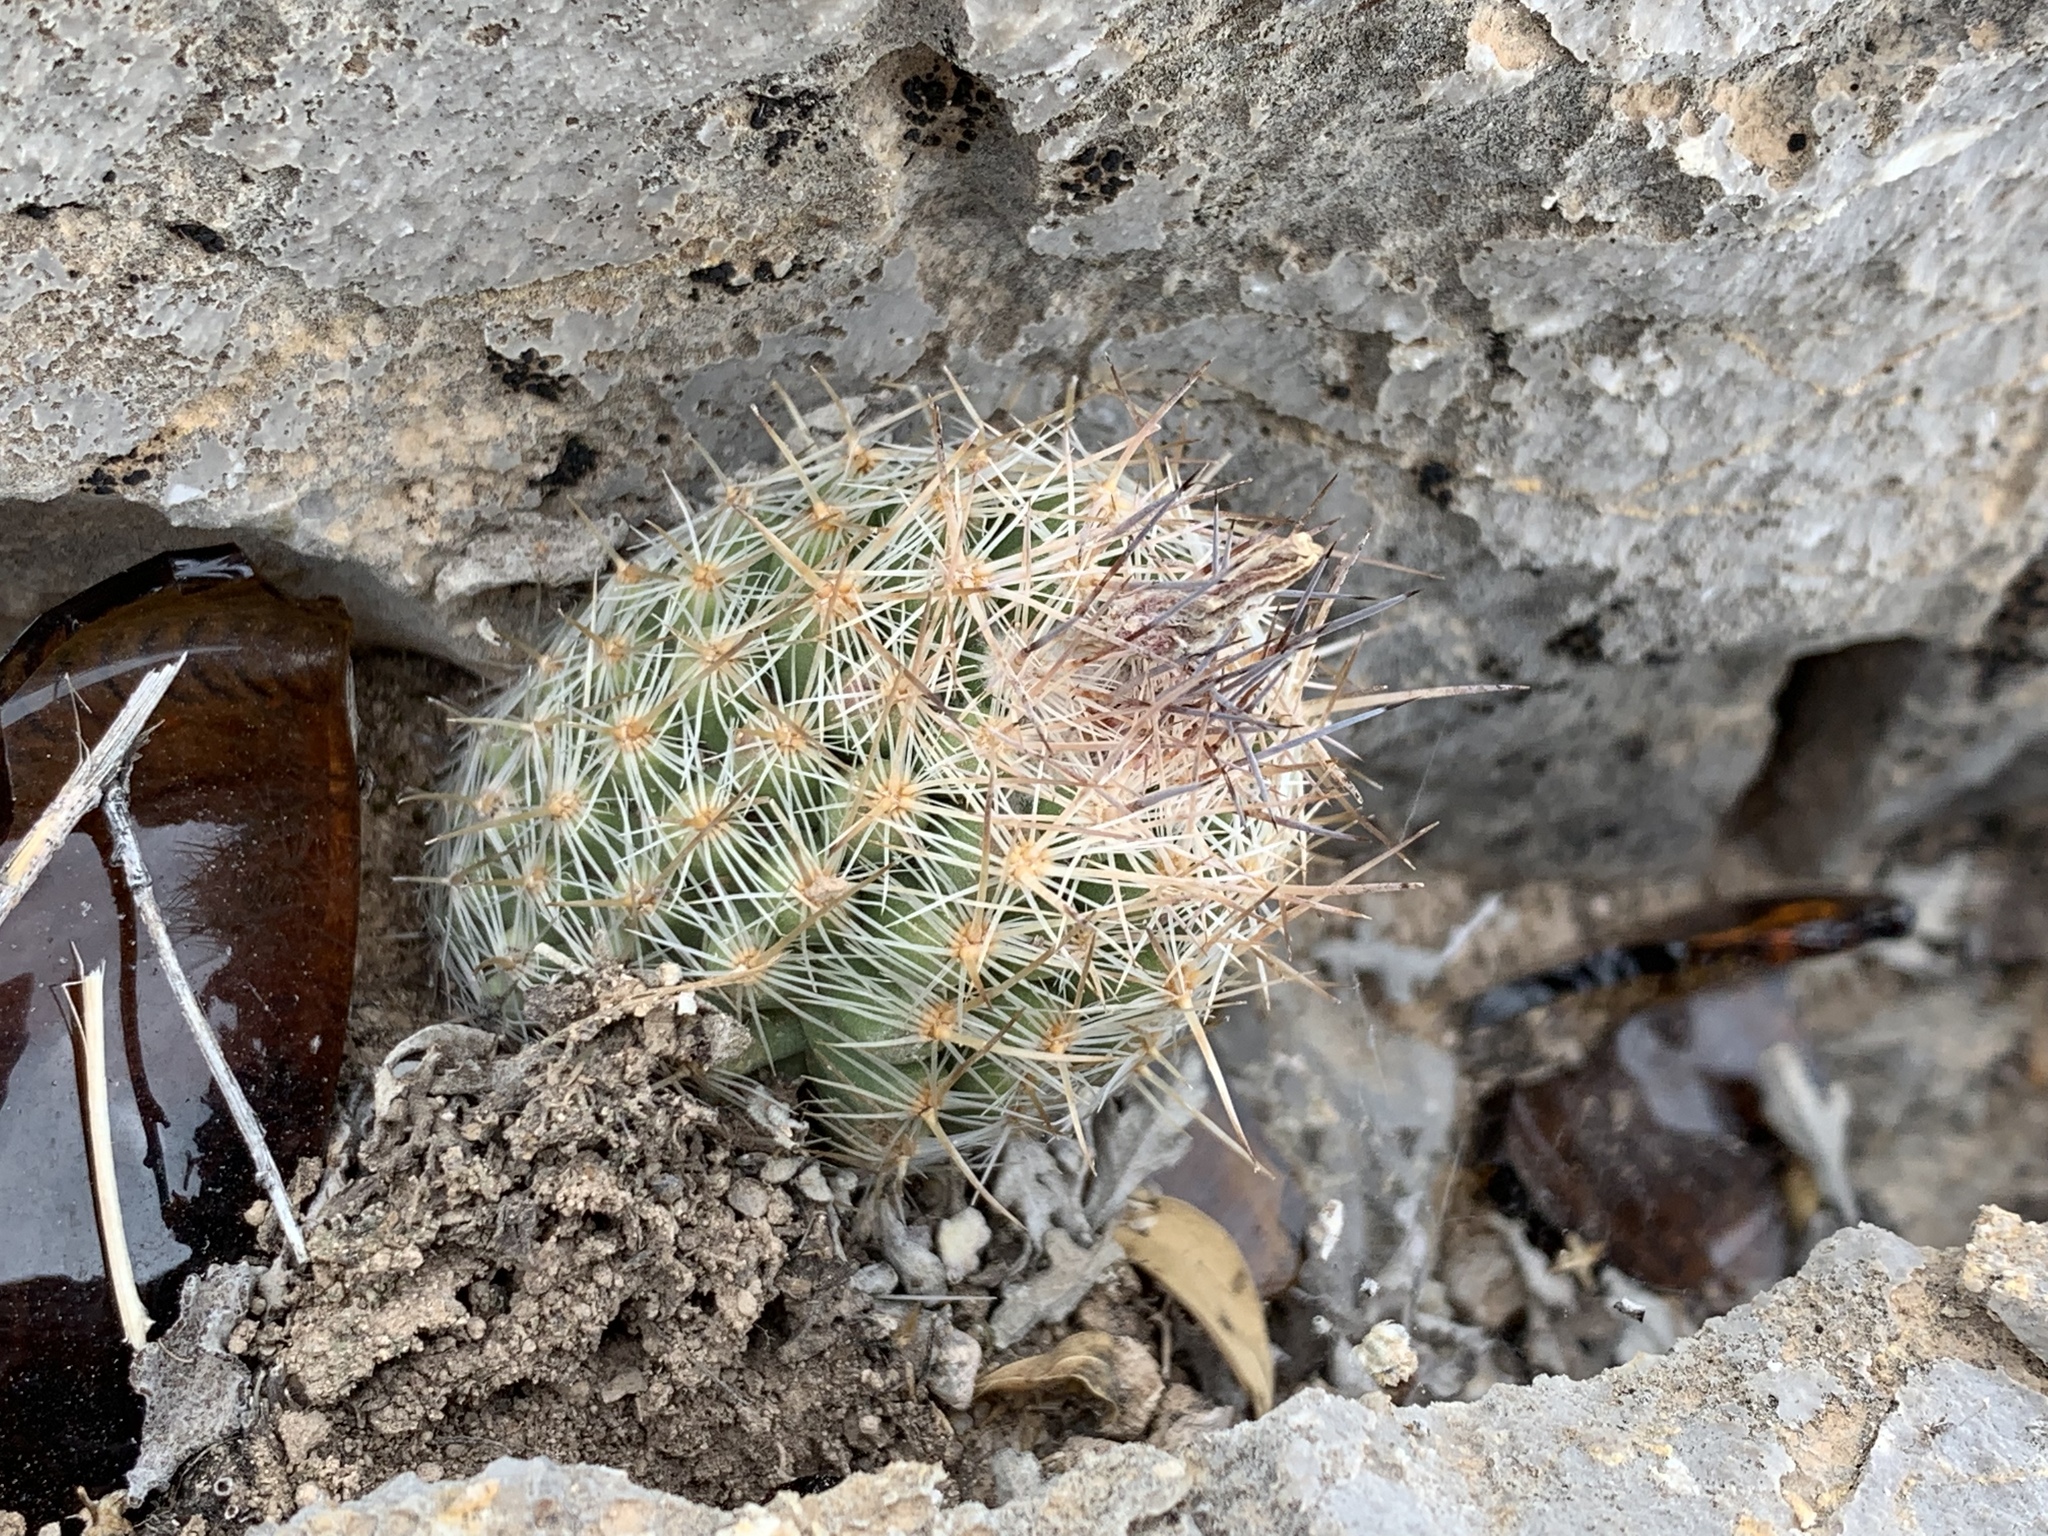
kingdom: Plantae
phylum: Tracheophyta
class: Magnoliopsida
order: Caryophyllales
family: Cactaceae
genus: Pelecyphora
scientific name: Pelecyphora tuberculosa
